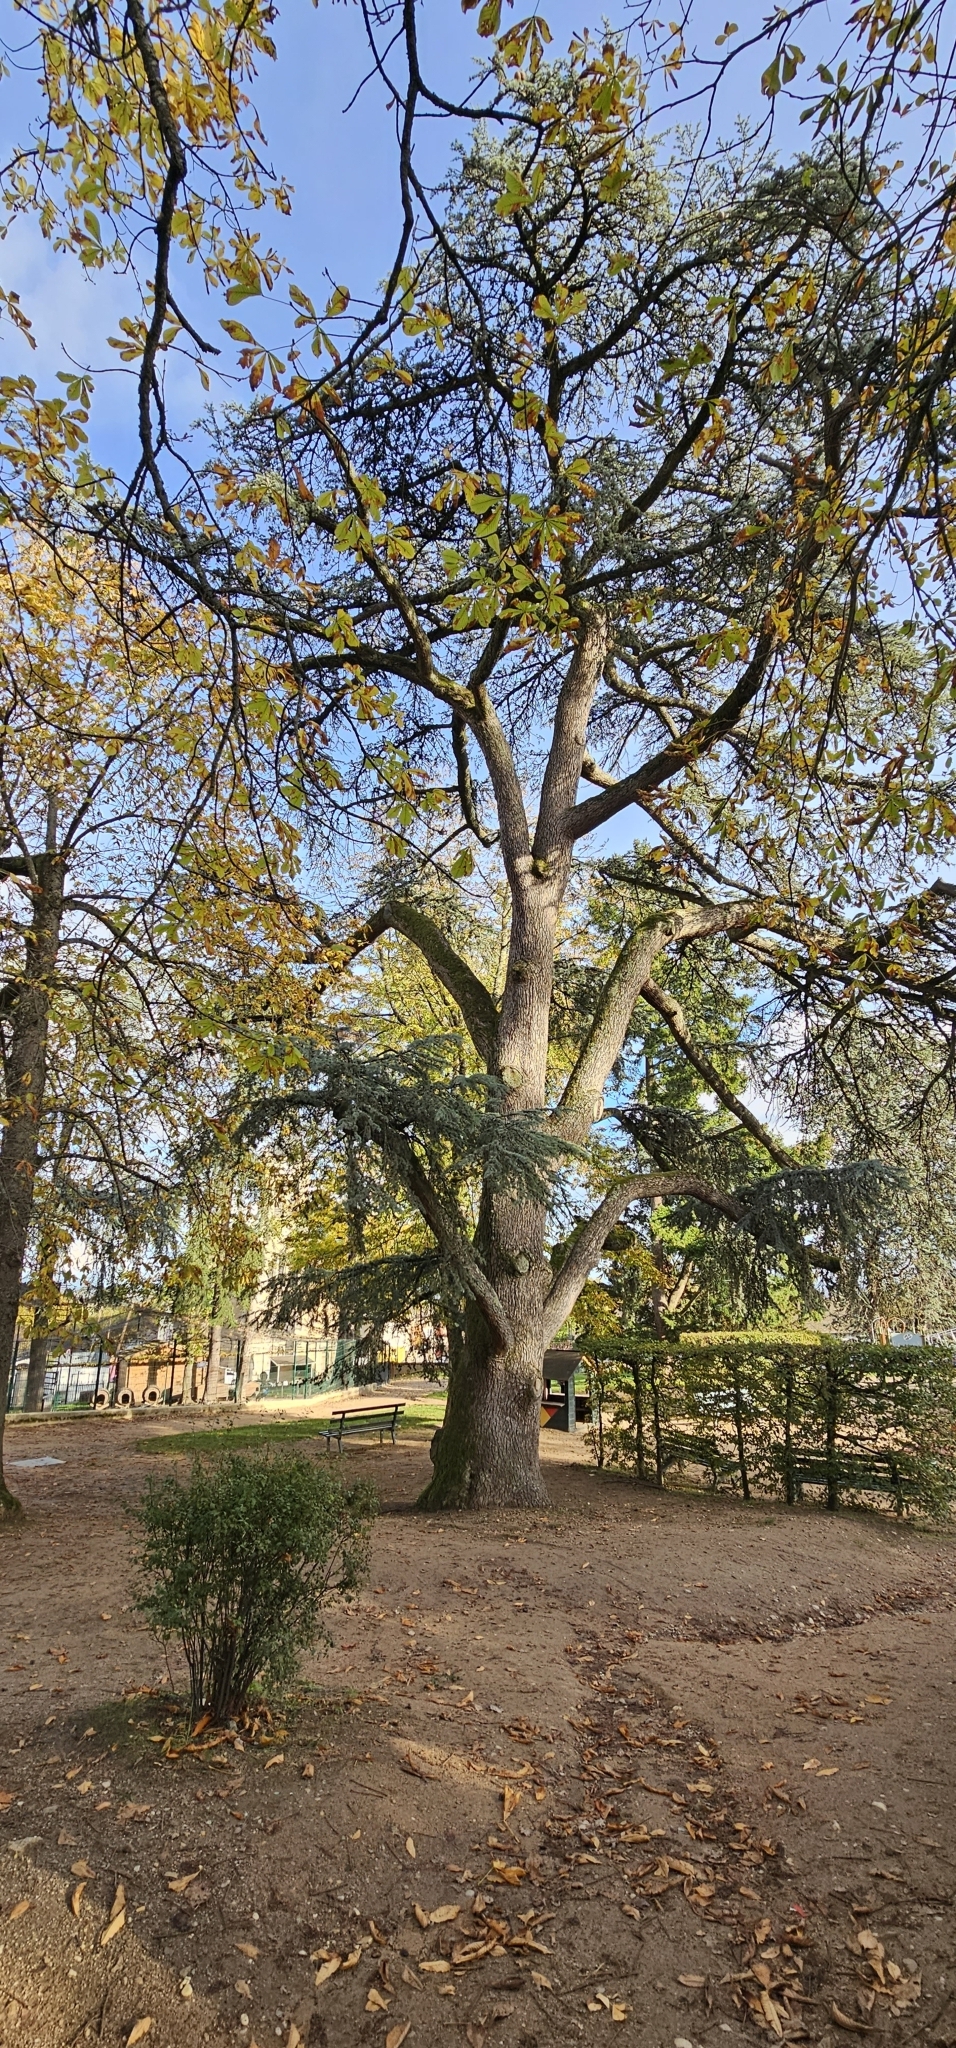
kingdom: Plantae
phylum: Tracheophyta
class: Pinopsida
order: Pinales
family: Pinaceae
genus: Cedrus
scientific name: Cedrus atlantica
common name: Atlas cedar
